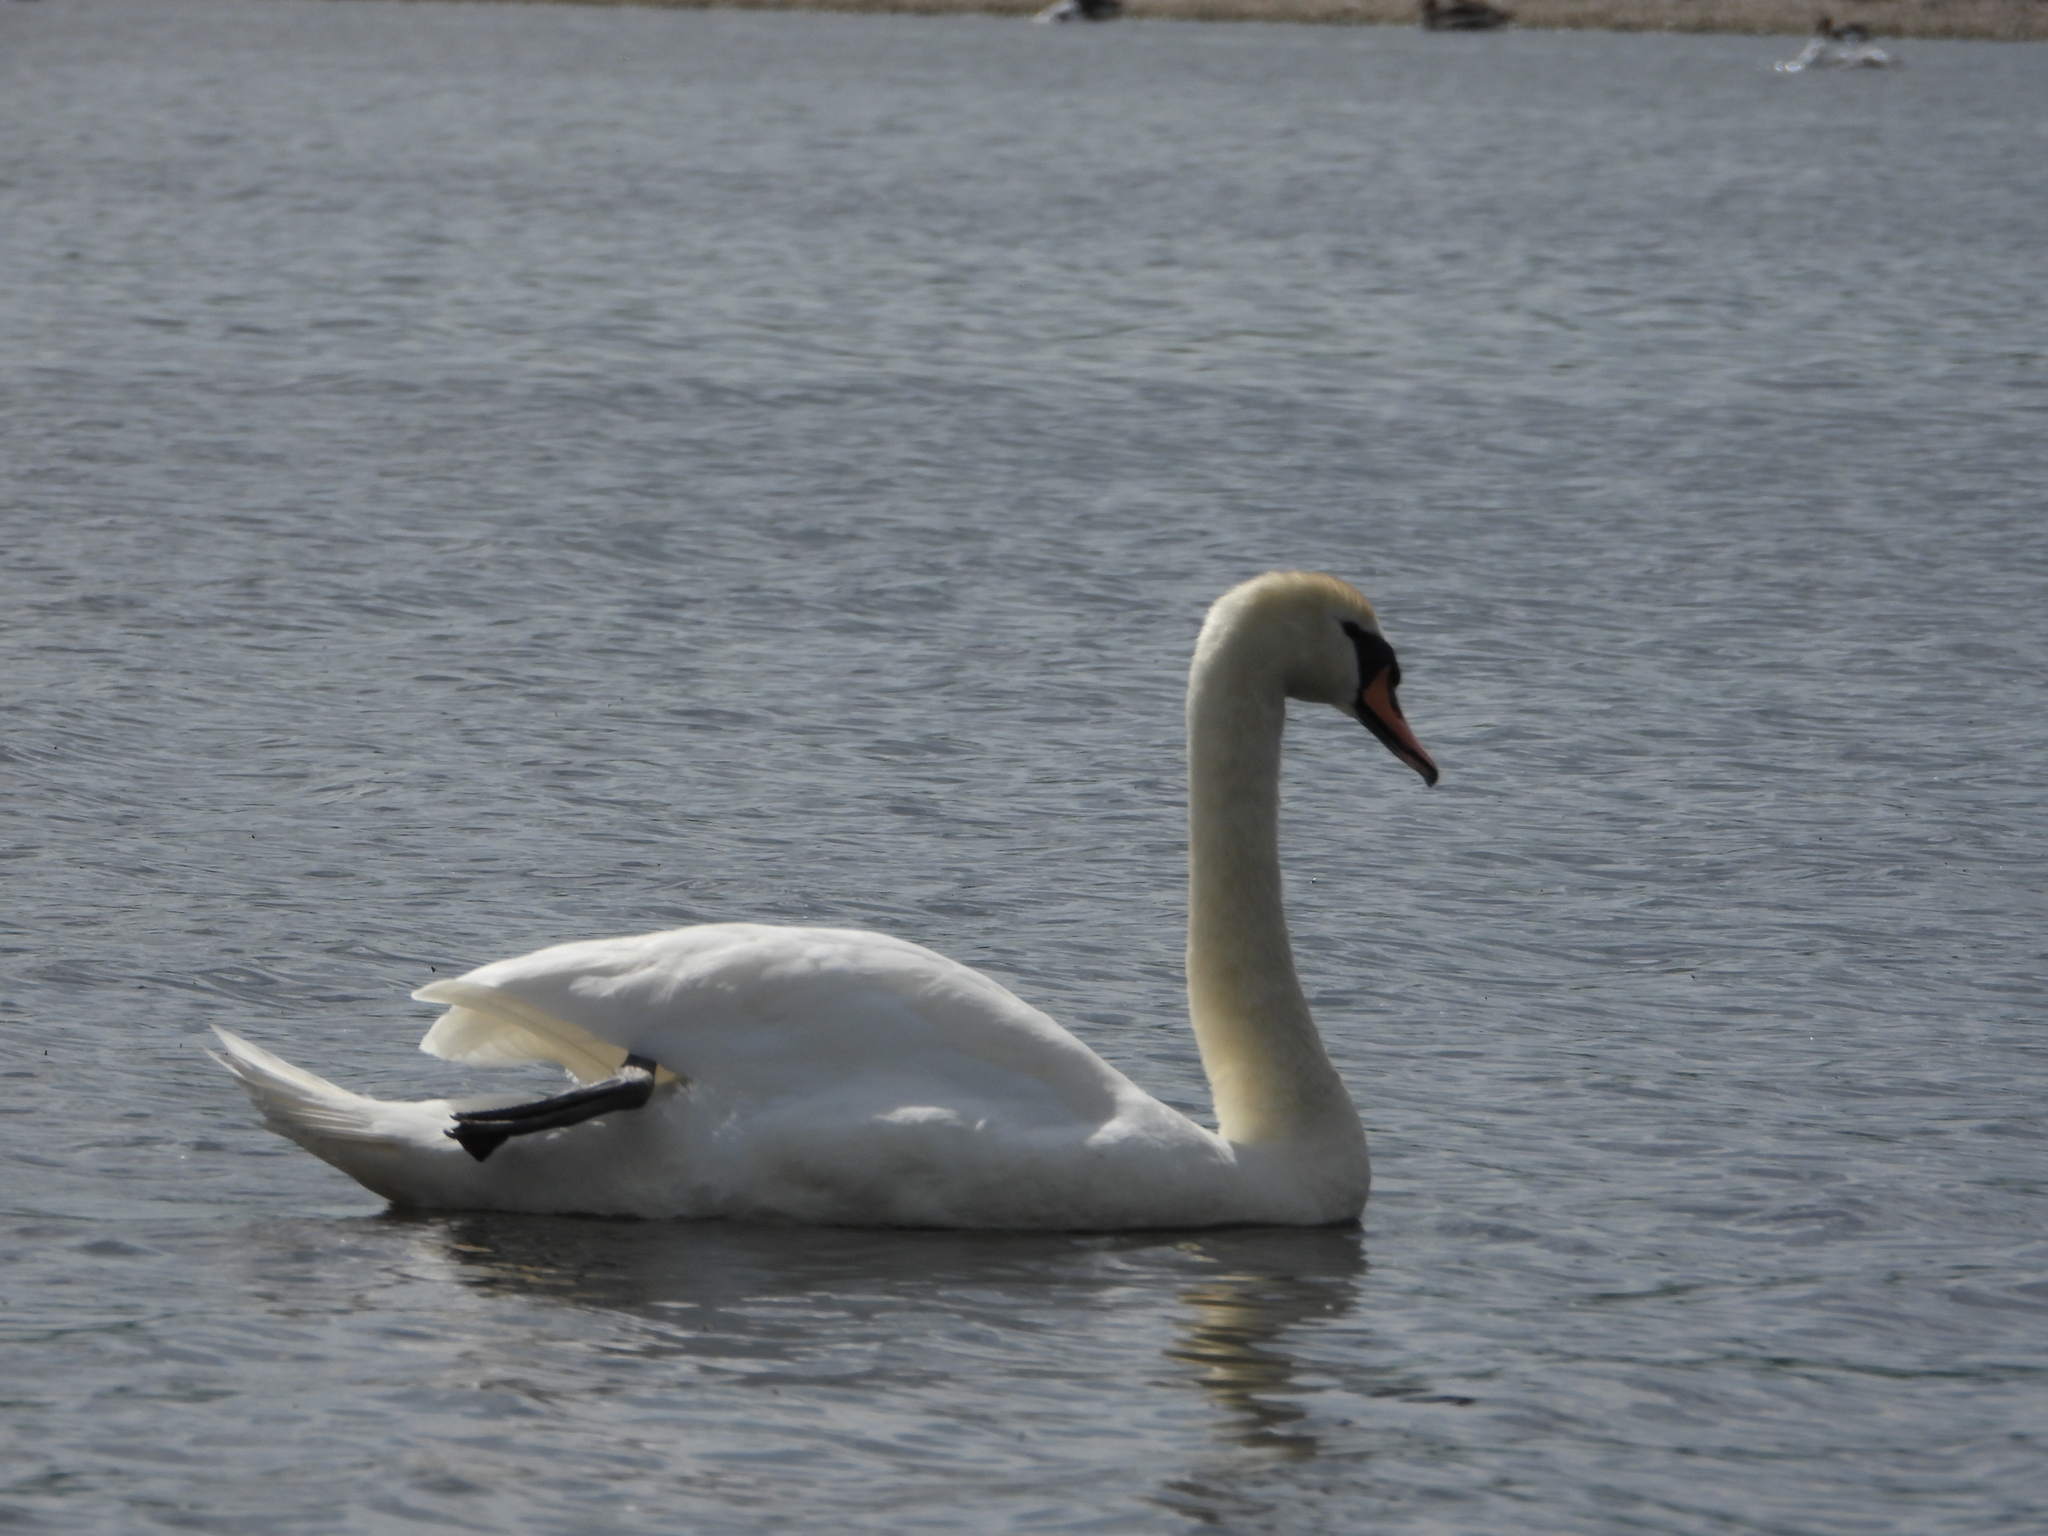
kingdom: Animalia
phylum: Chordata
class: Aves
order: Anseriformes
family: Anatidae
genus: Cygnus
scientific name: Cygnus olor
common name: Mute swan
